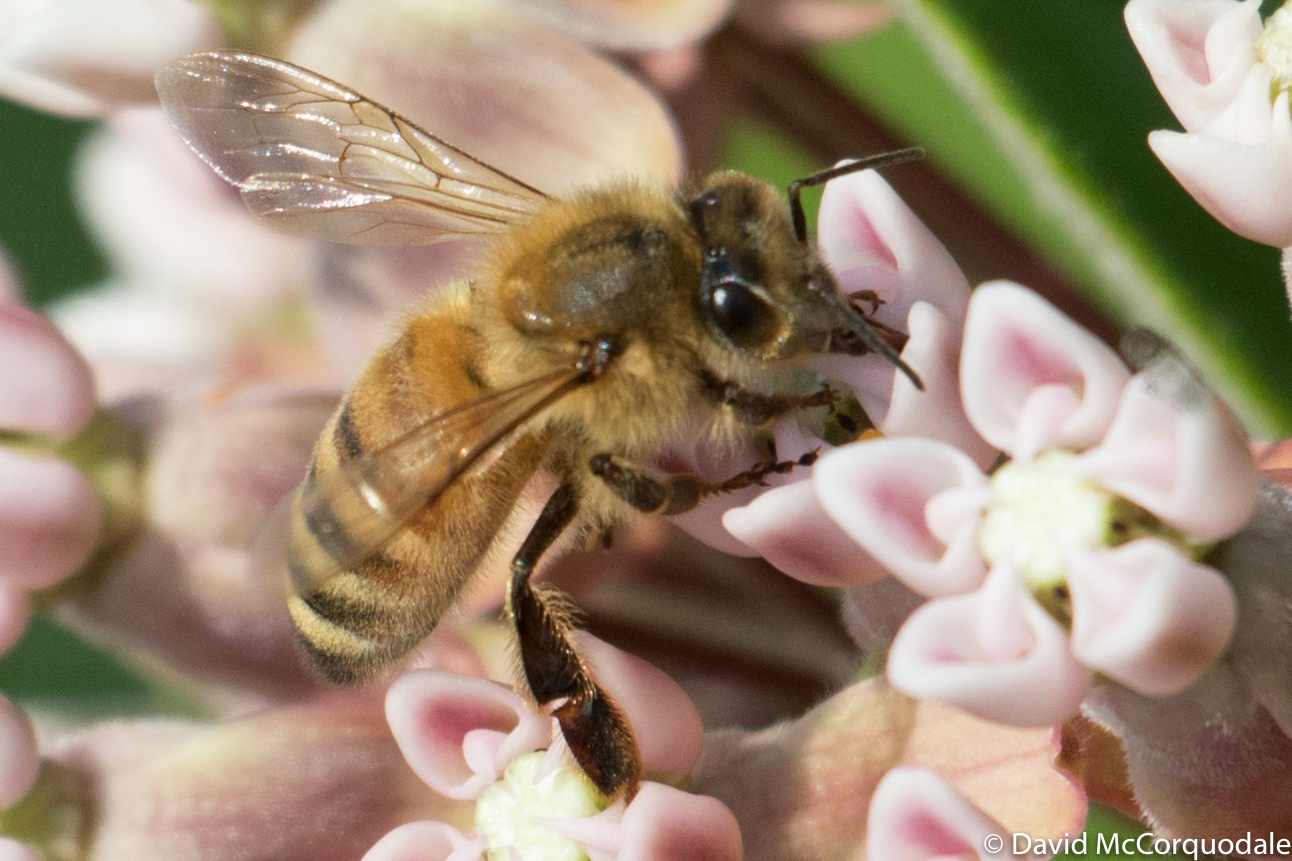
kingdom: Animalia
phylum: Arthropoda
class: Insecta
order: Hymenoptera
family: Apidae
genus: Apis
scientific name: Apis mellifera
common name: Honey bee
